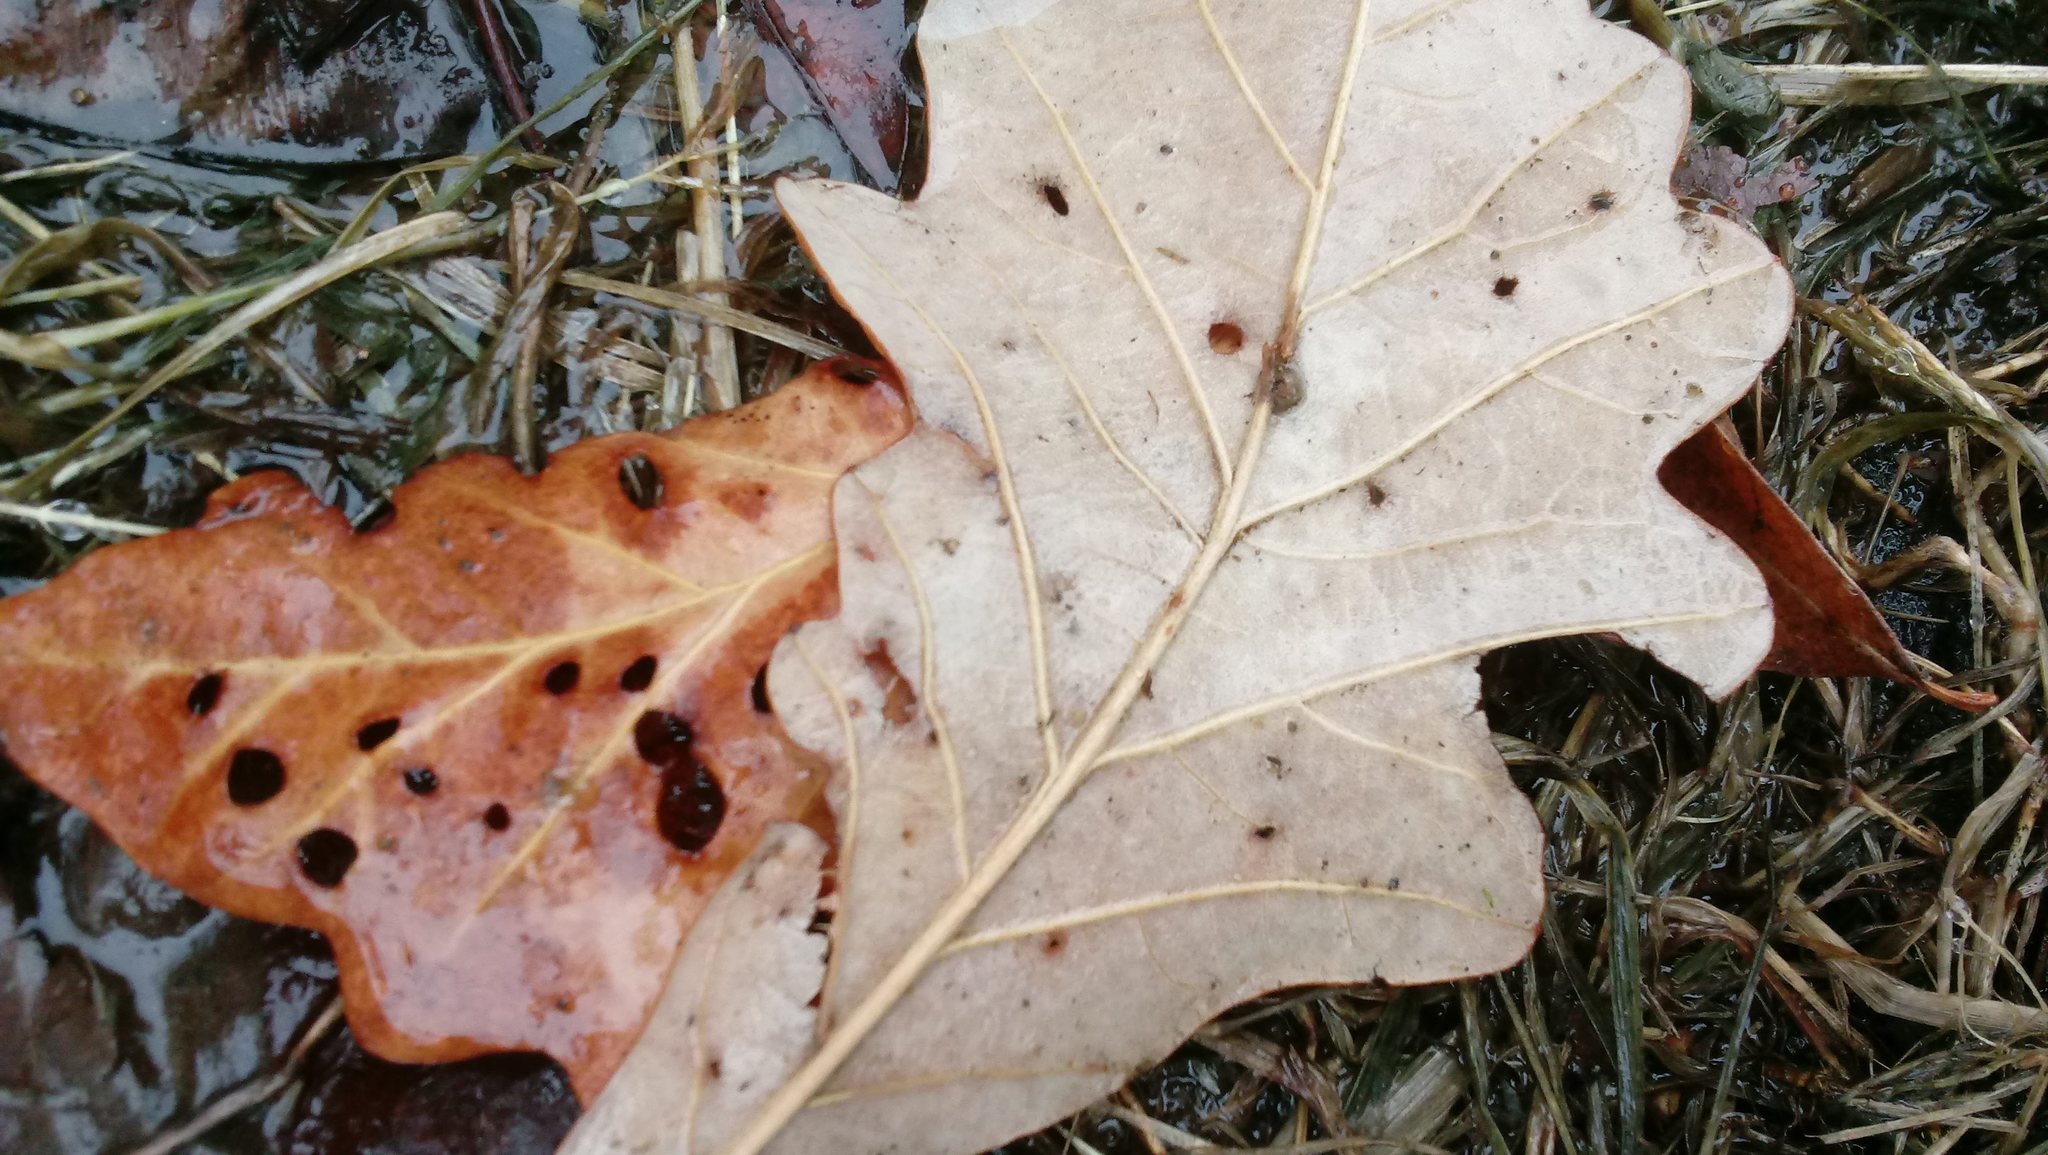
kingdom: Animalia
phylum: Arthropoda
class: Insecta
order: Hymenoptera
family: Cynipidae
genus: Andricus
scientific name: Andricus Druon ignotum
